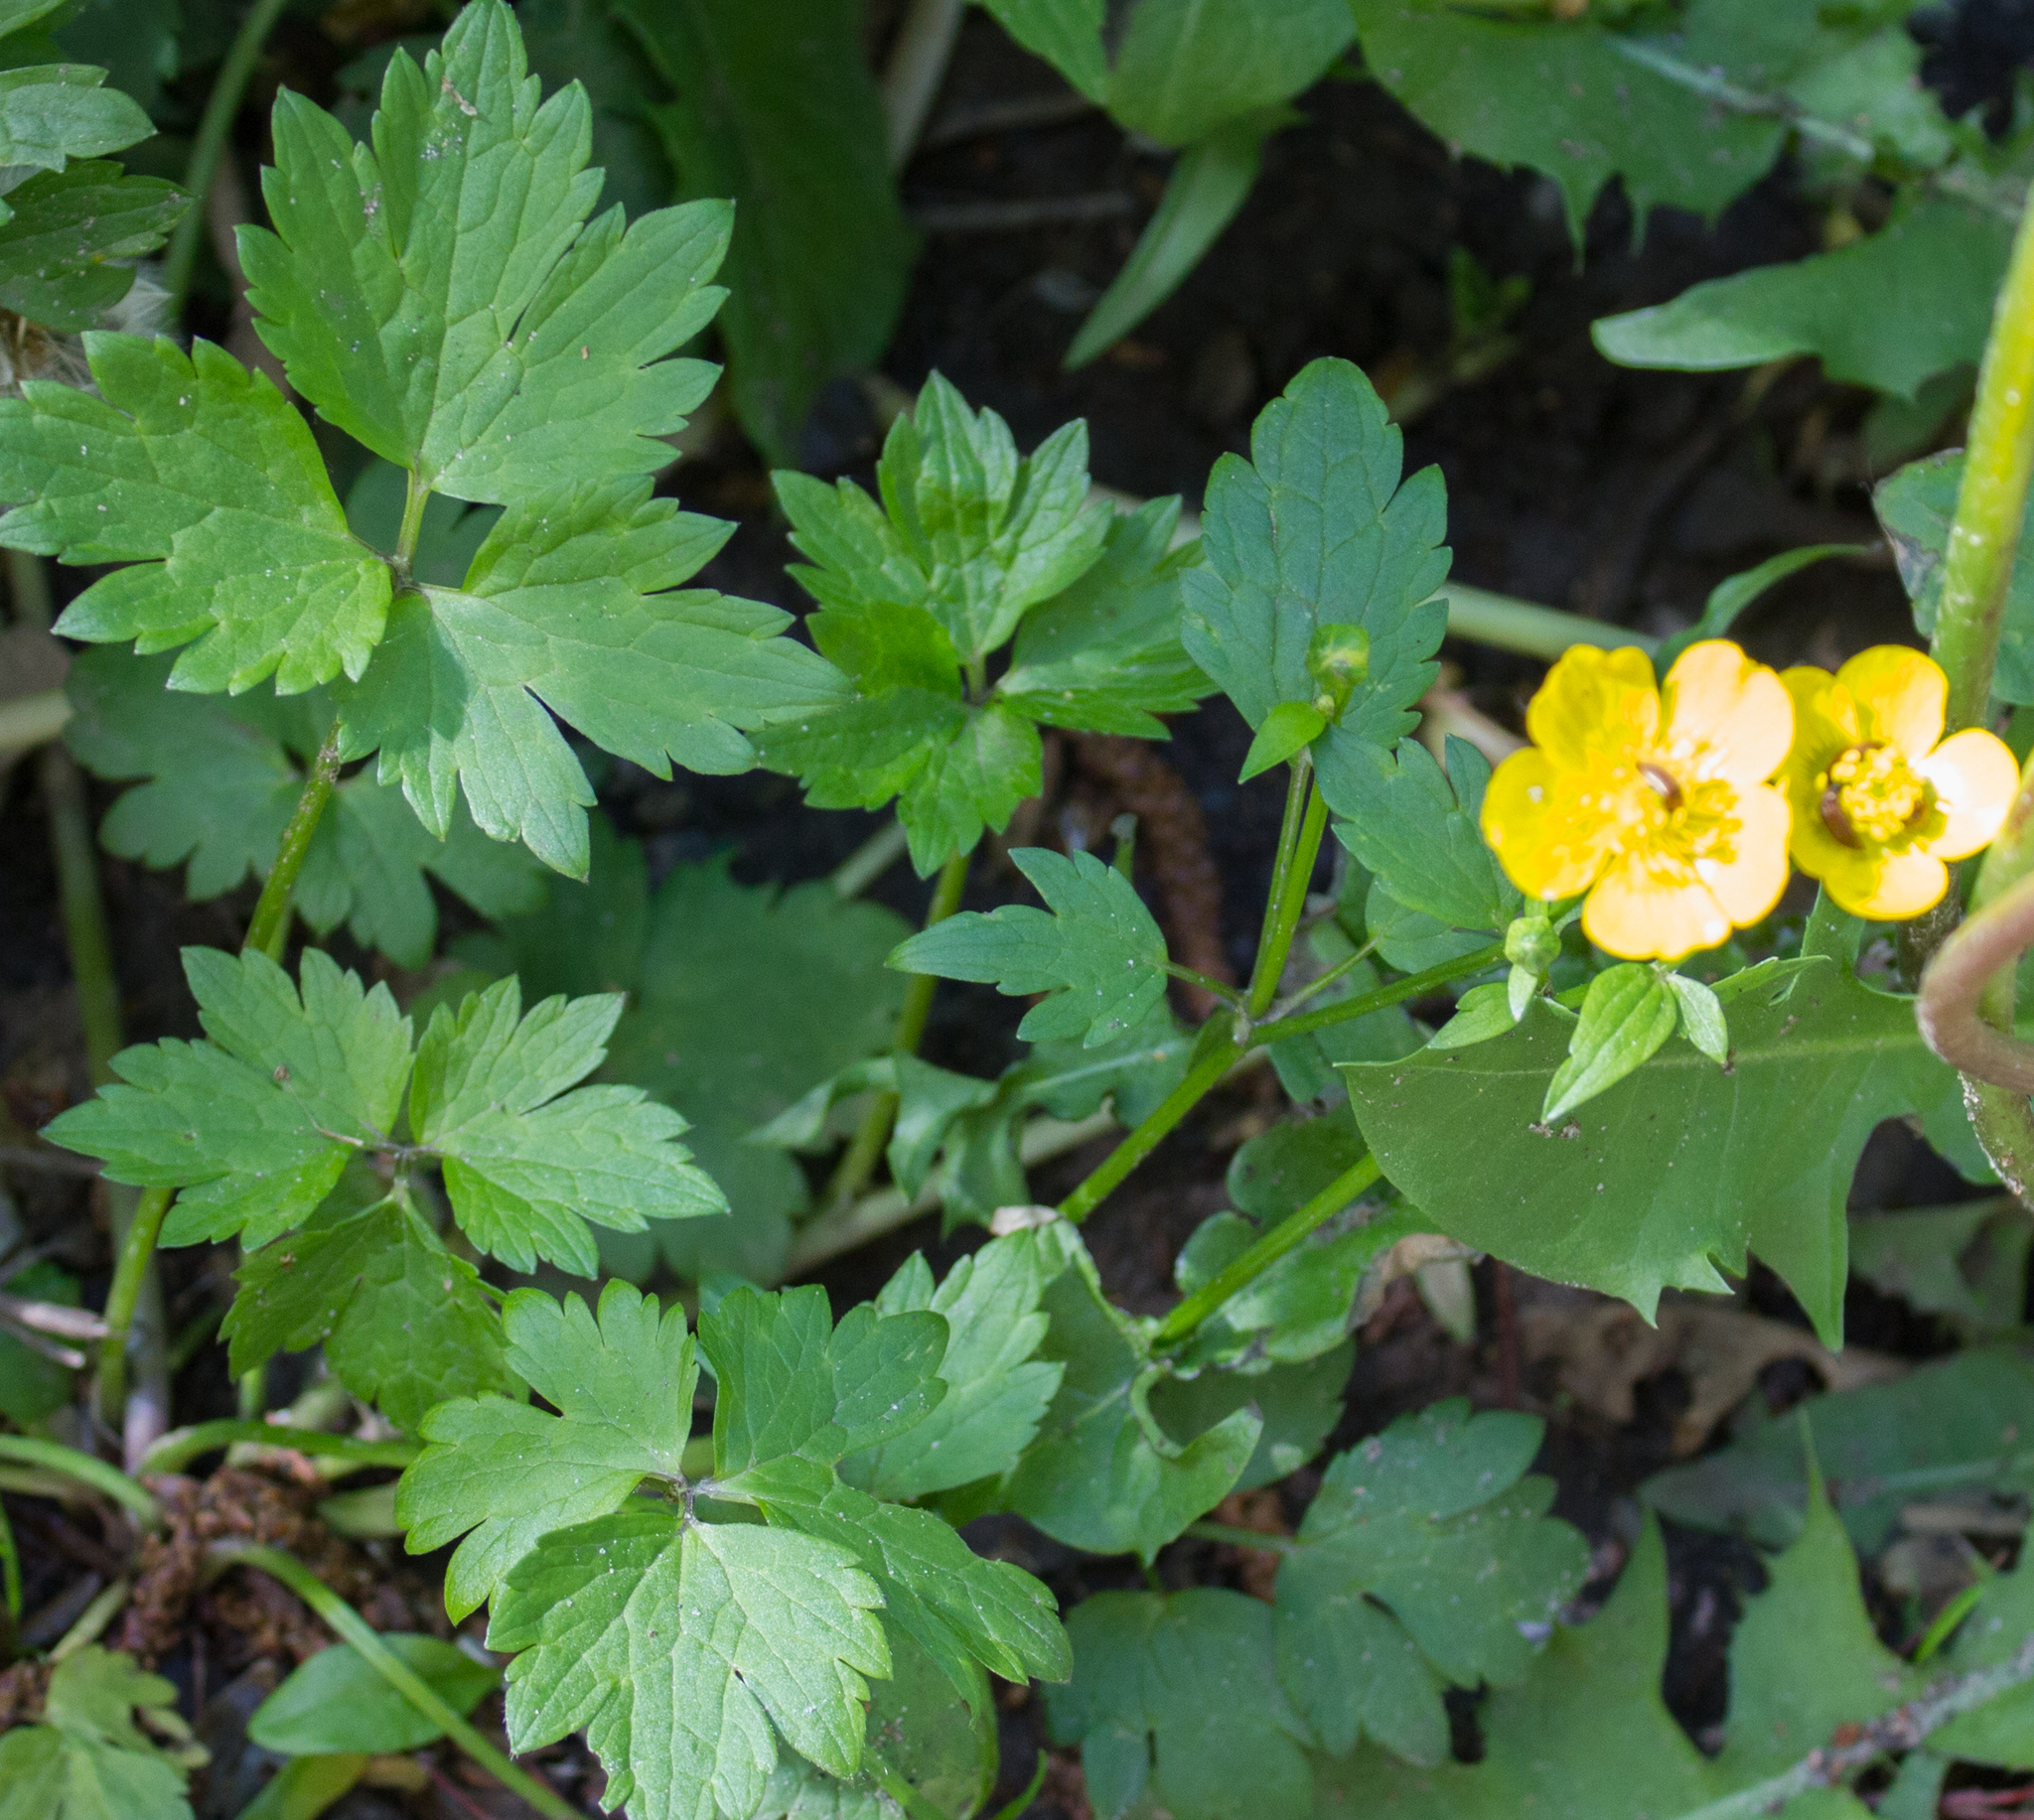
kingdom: Plantae
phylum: Tracheophyta
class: Magnoliopsida
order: Ranunculales
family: Ranunculaceae
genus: Ranunculus
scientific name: Ranunculus repens
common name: Creeping buttercup
